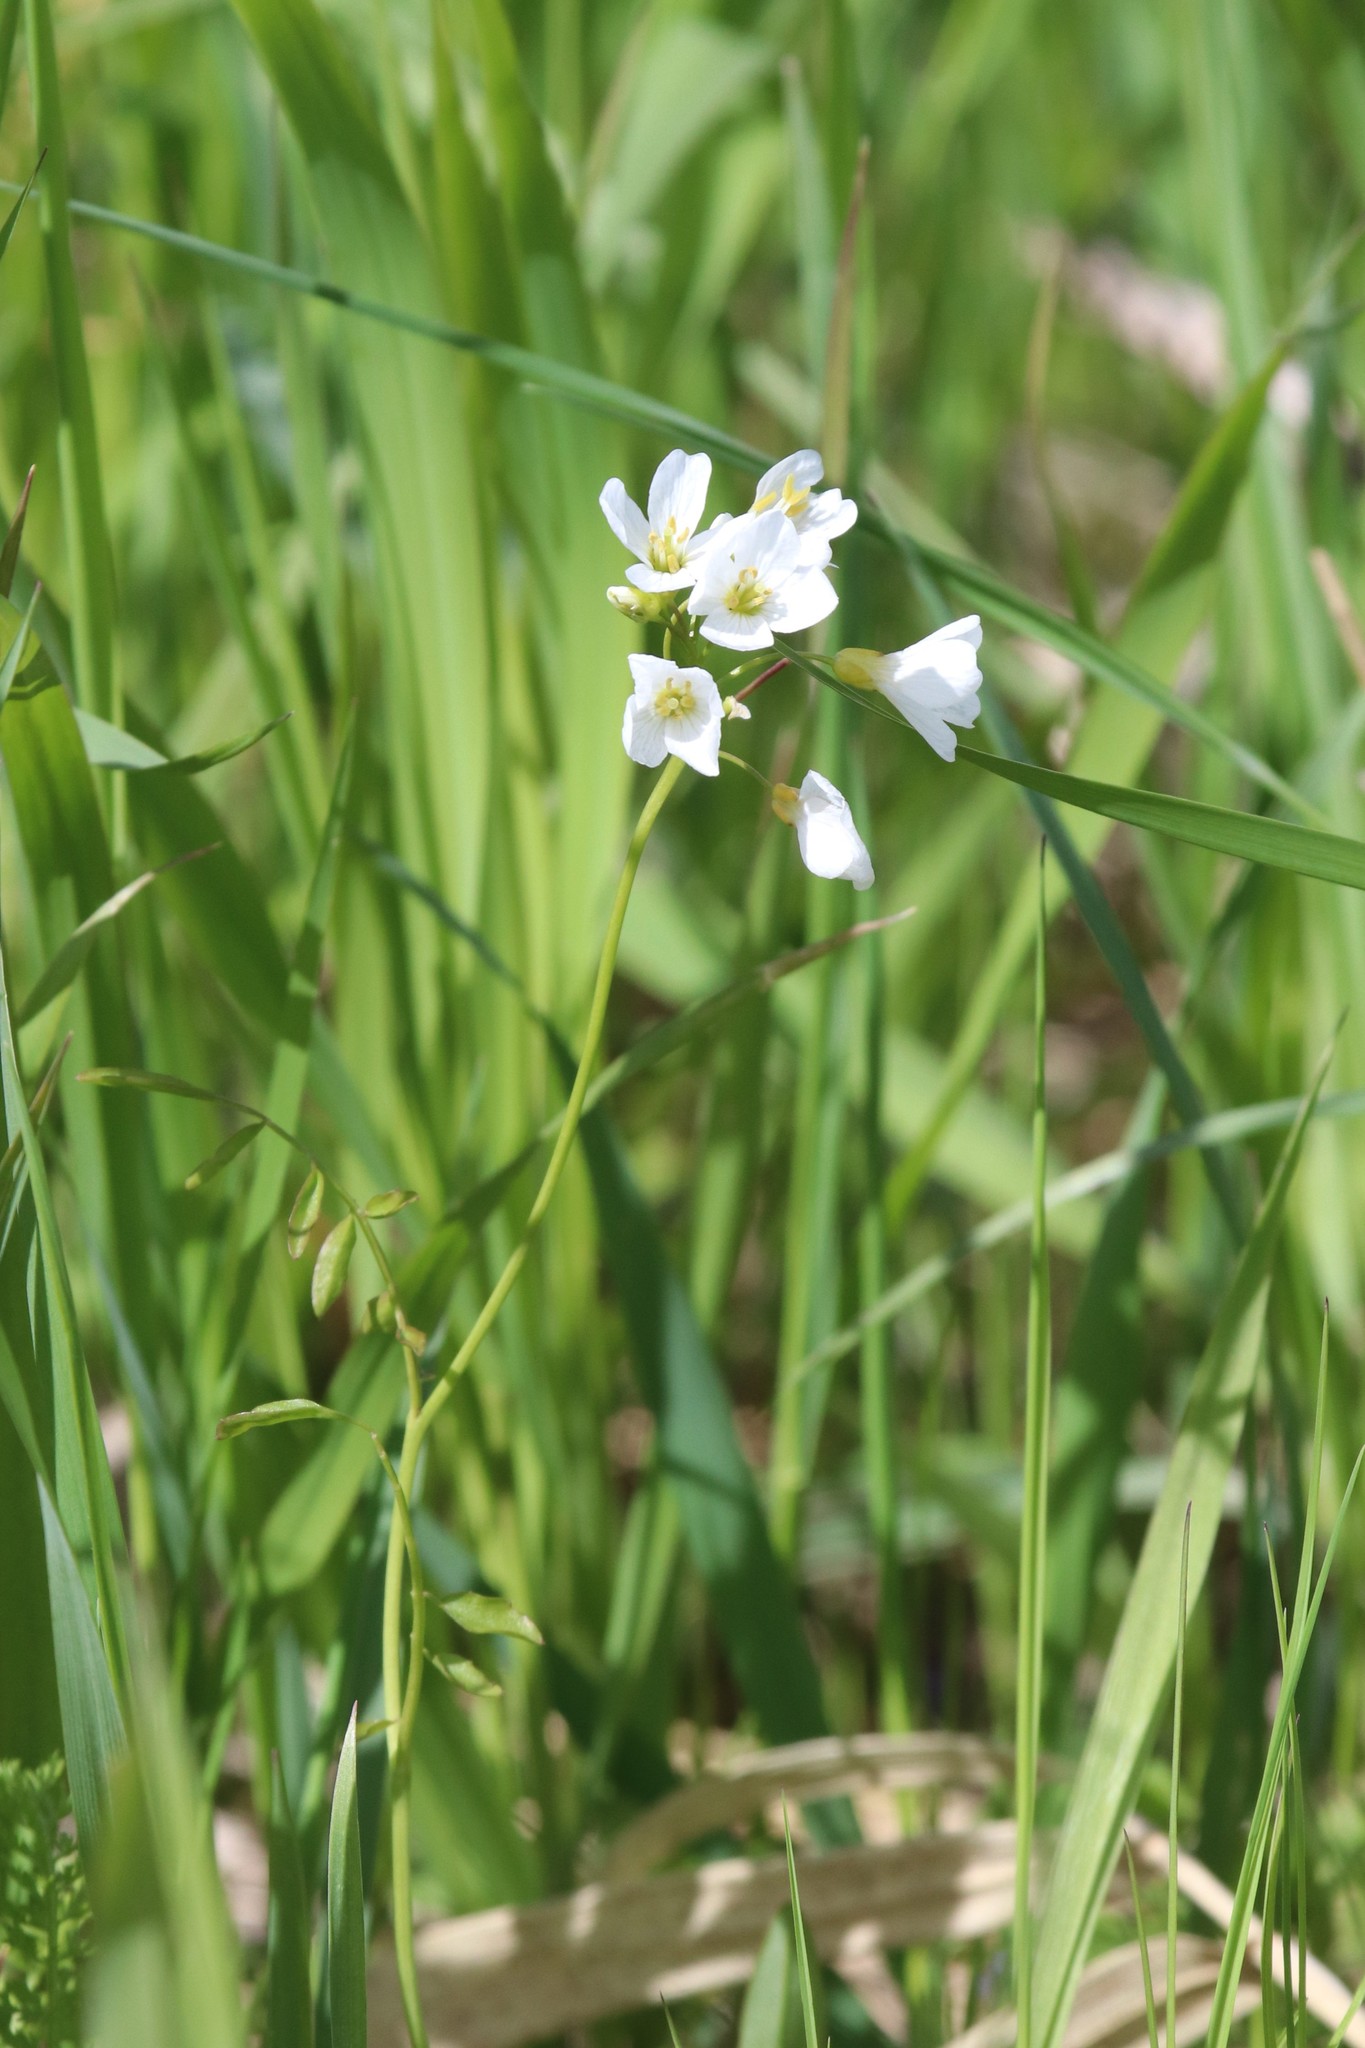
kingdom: Plantae
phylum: Tracheophyta
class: Magnoliopsida
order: Brassicales
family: Brassicaceae
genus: Cardamine
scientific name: Cardamine dentata
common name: Toothed bittercress
